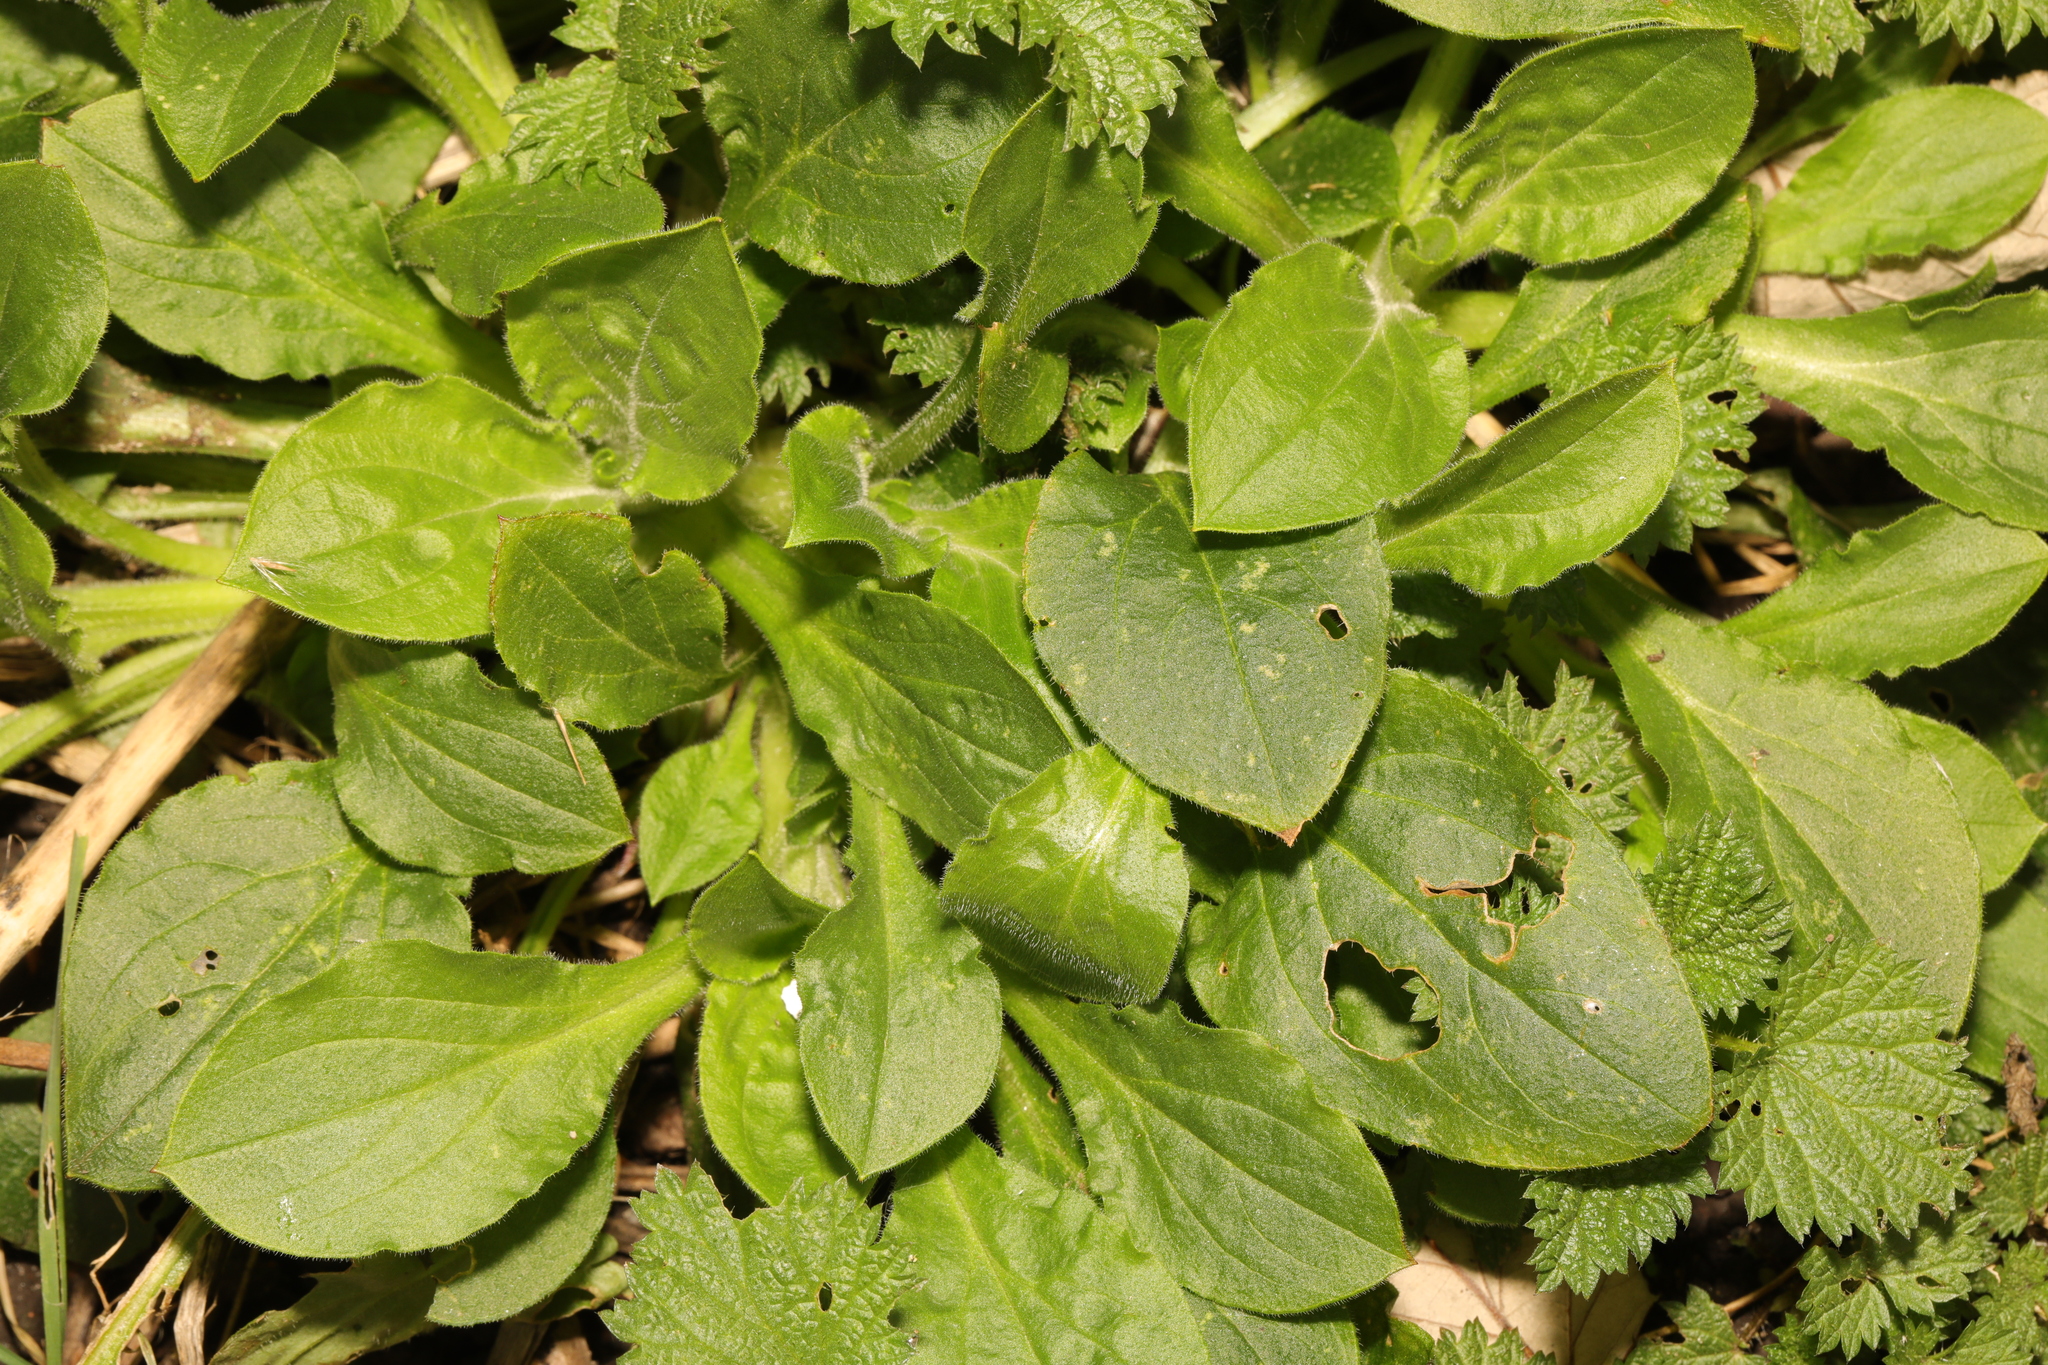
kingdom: Plantae
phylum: Tracheophyta
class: Magnoliopsida
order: Caryophyllales
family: Caryophyllaceae
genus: Silene
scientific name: Silene dioica
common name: Red campion
